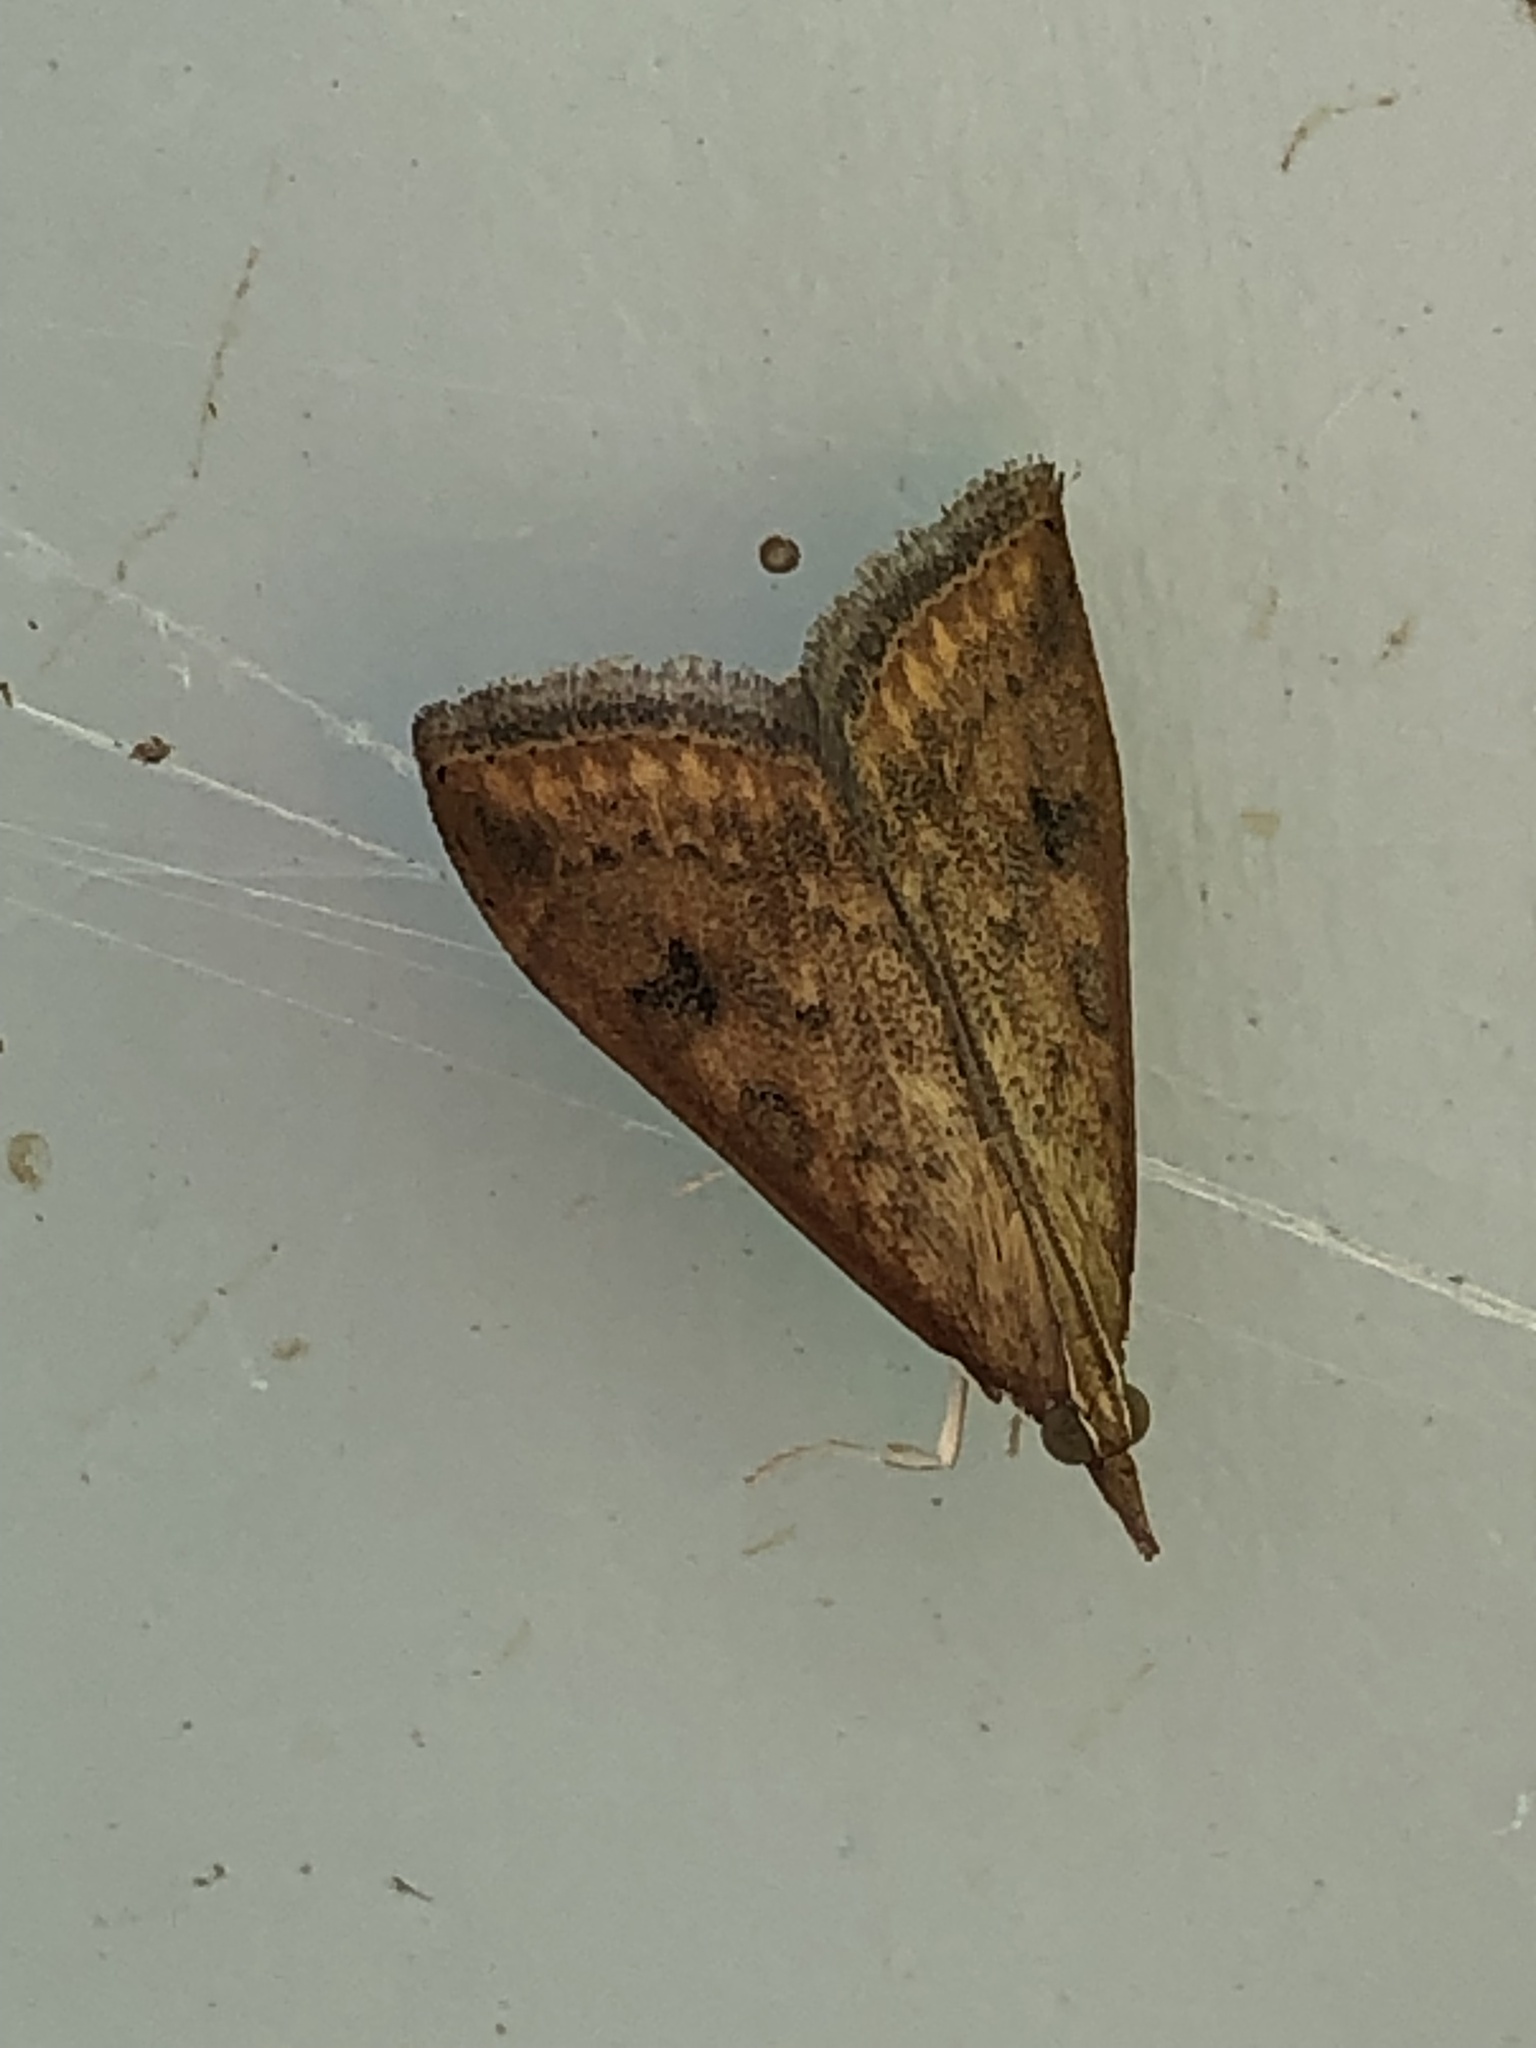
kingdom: Animalia
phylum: Arthropoda
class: Insecta
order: Lepidoptera
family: Crambidae
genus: Udea
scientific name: Udea ferrugalis
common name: Rusty dot
